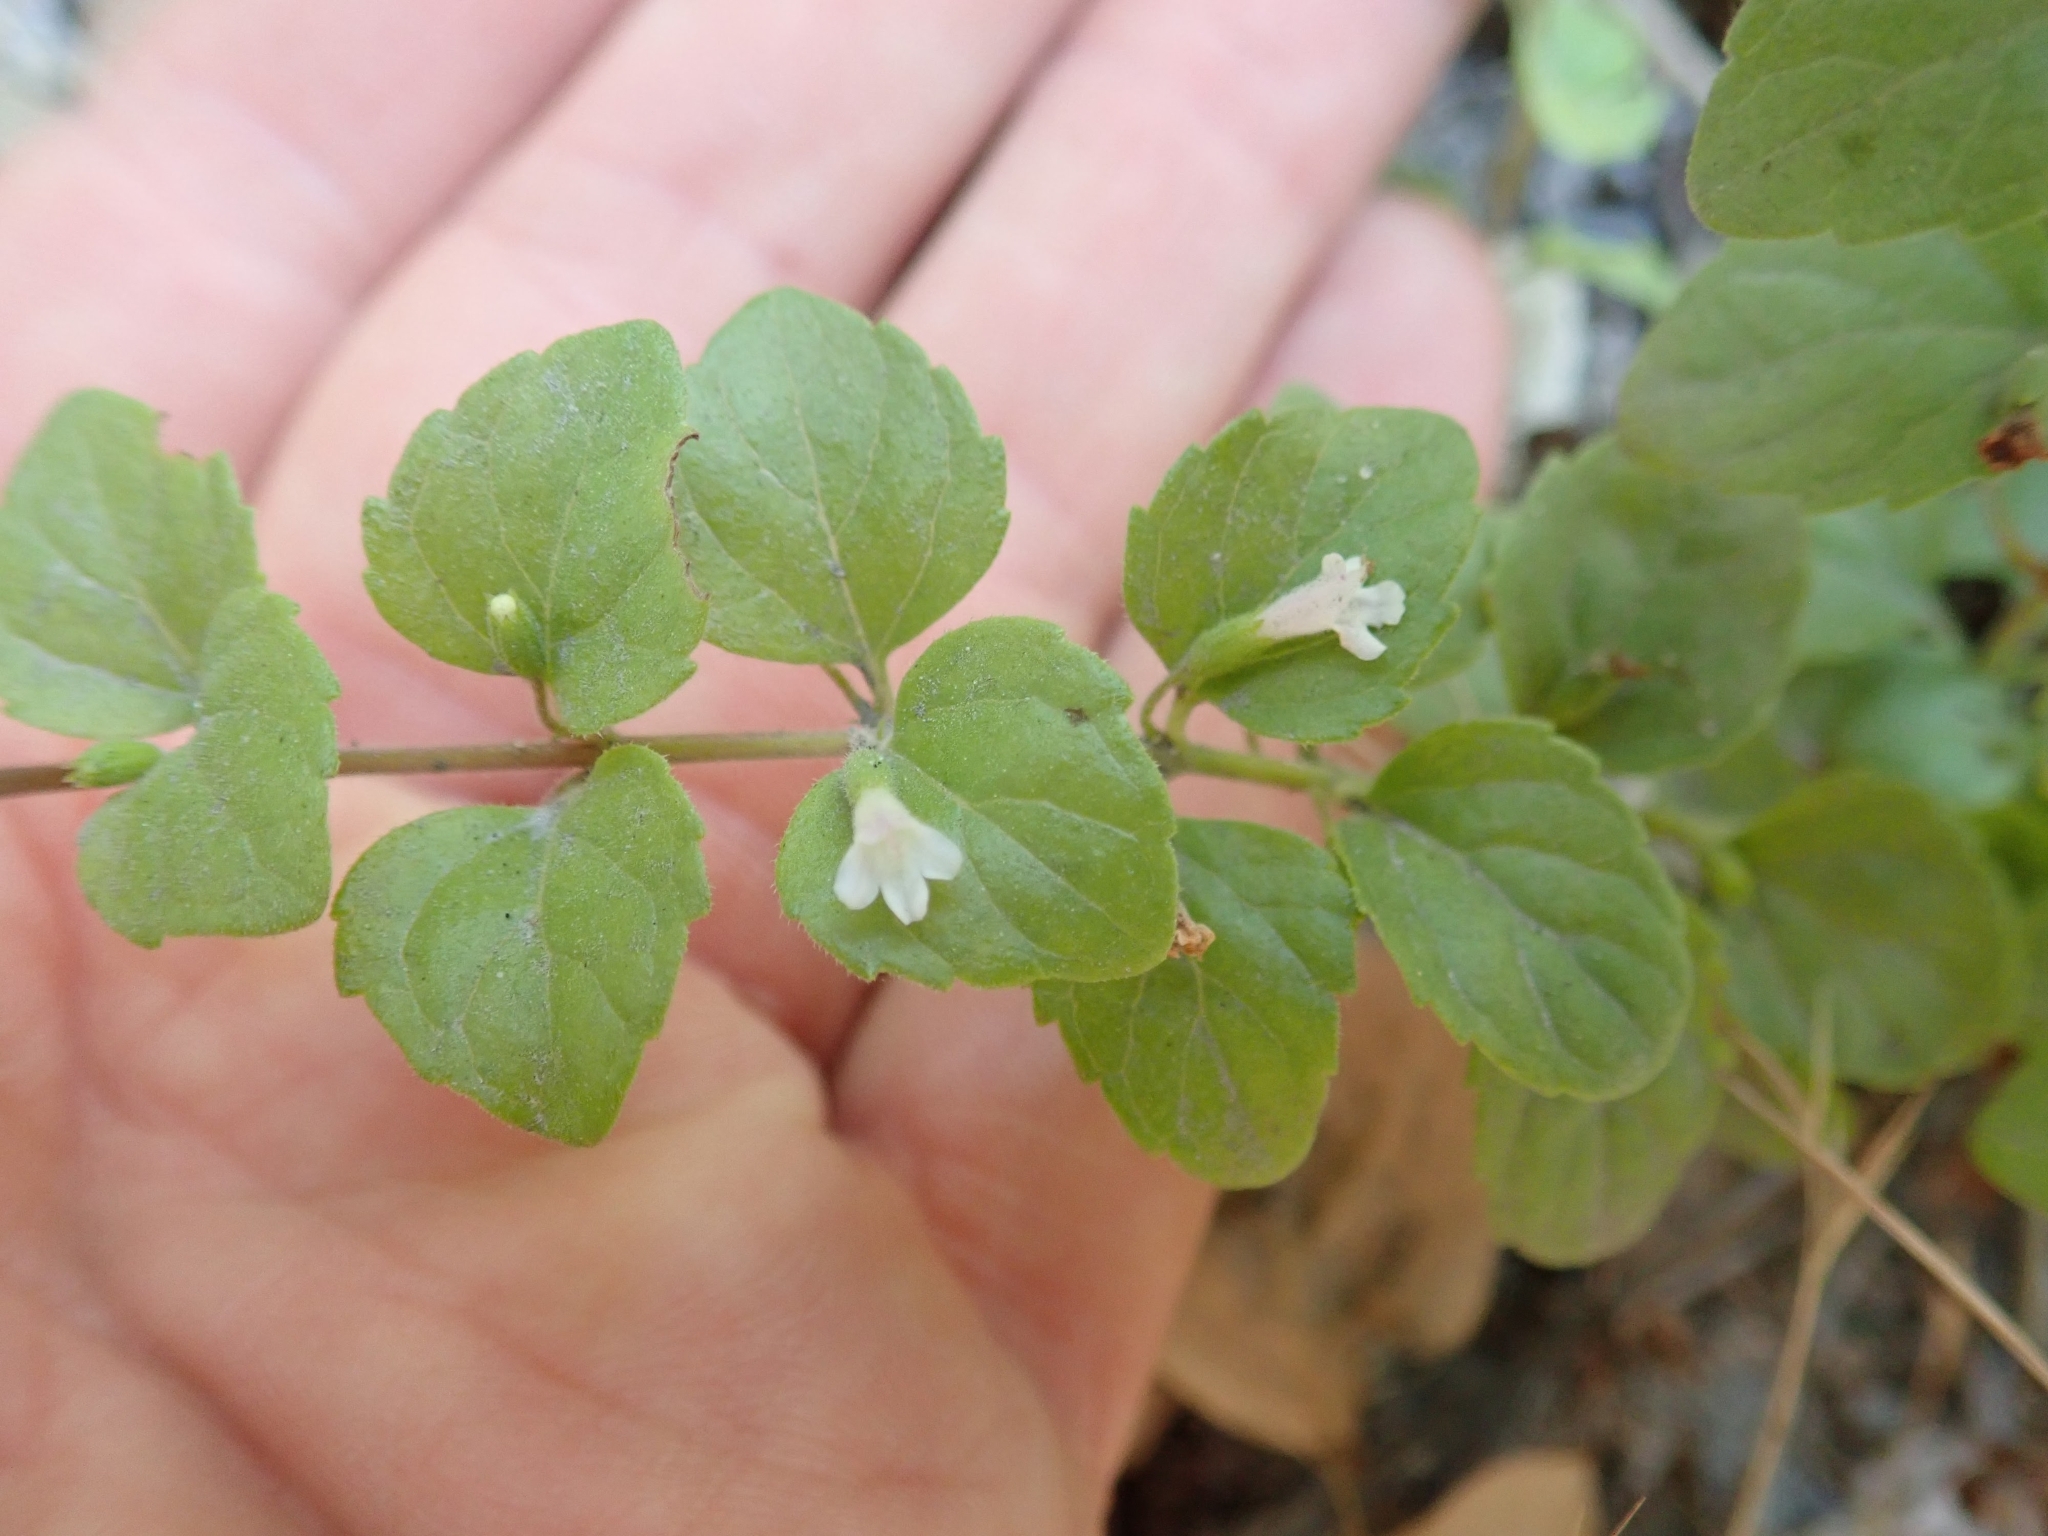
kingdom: Plantae
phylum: Tracheophyta
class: Magnoliopsida
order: Lamiales
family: Lamiaceae
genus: Micromeria
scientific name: Micromeria douglasii
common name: Yerba buena
